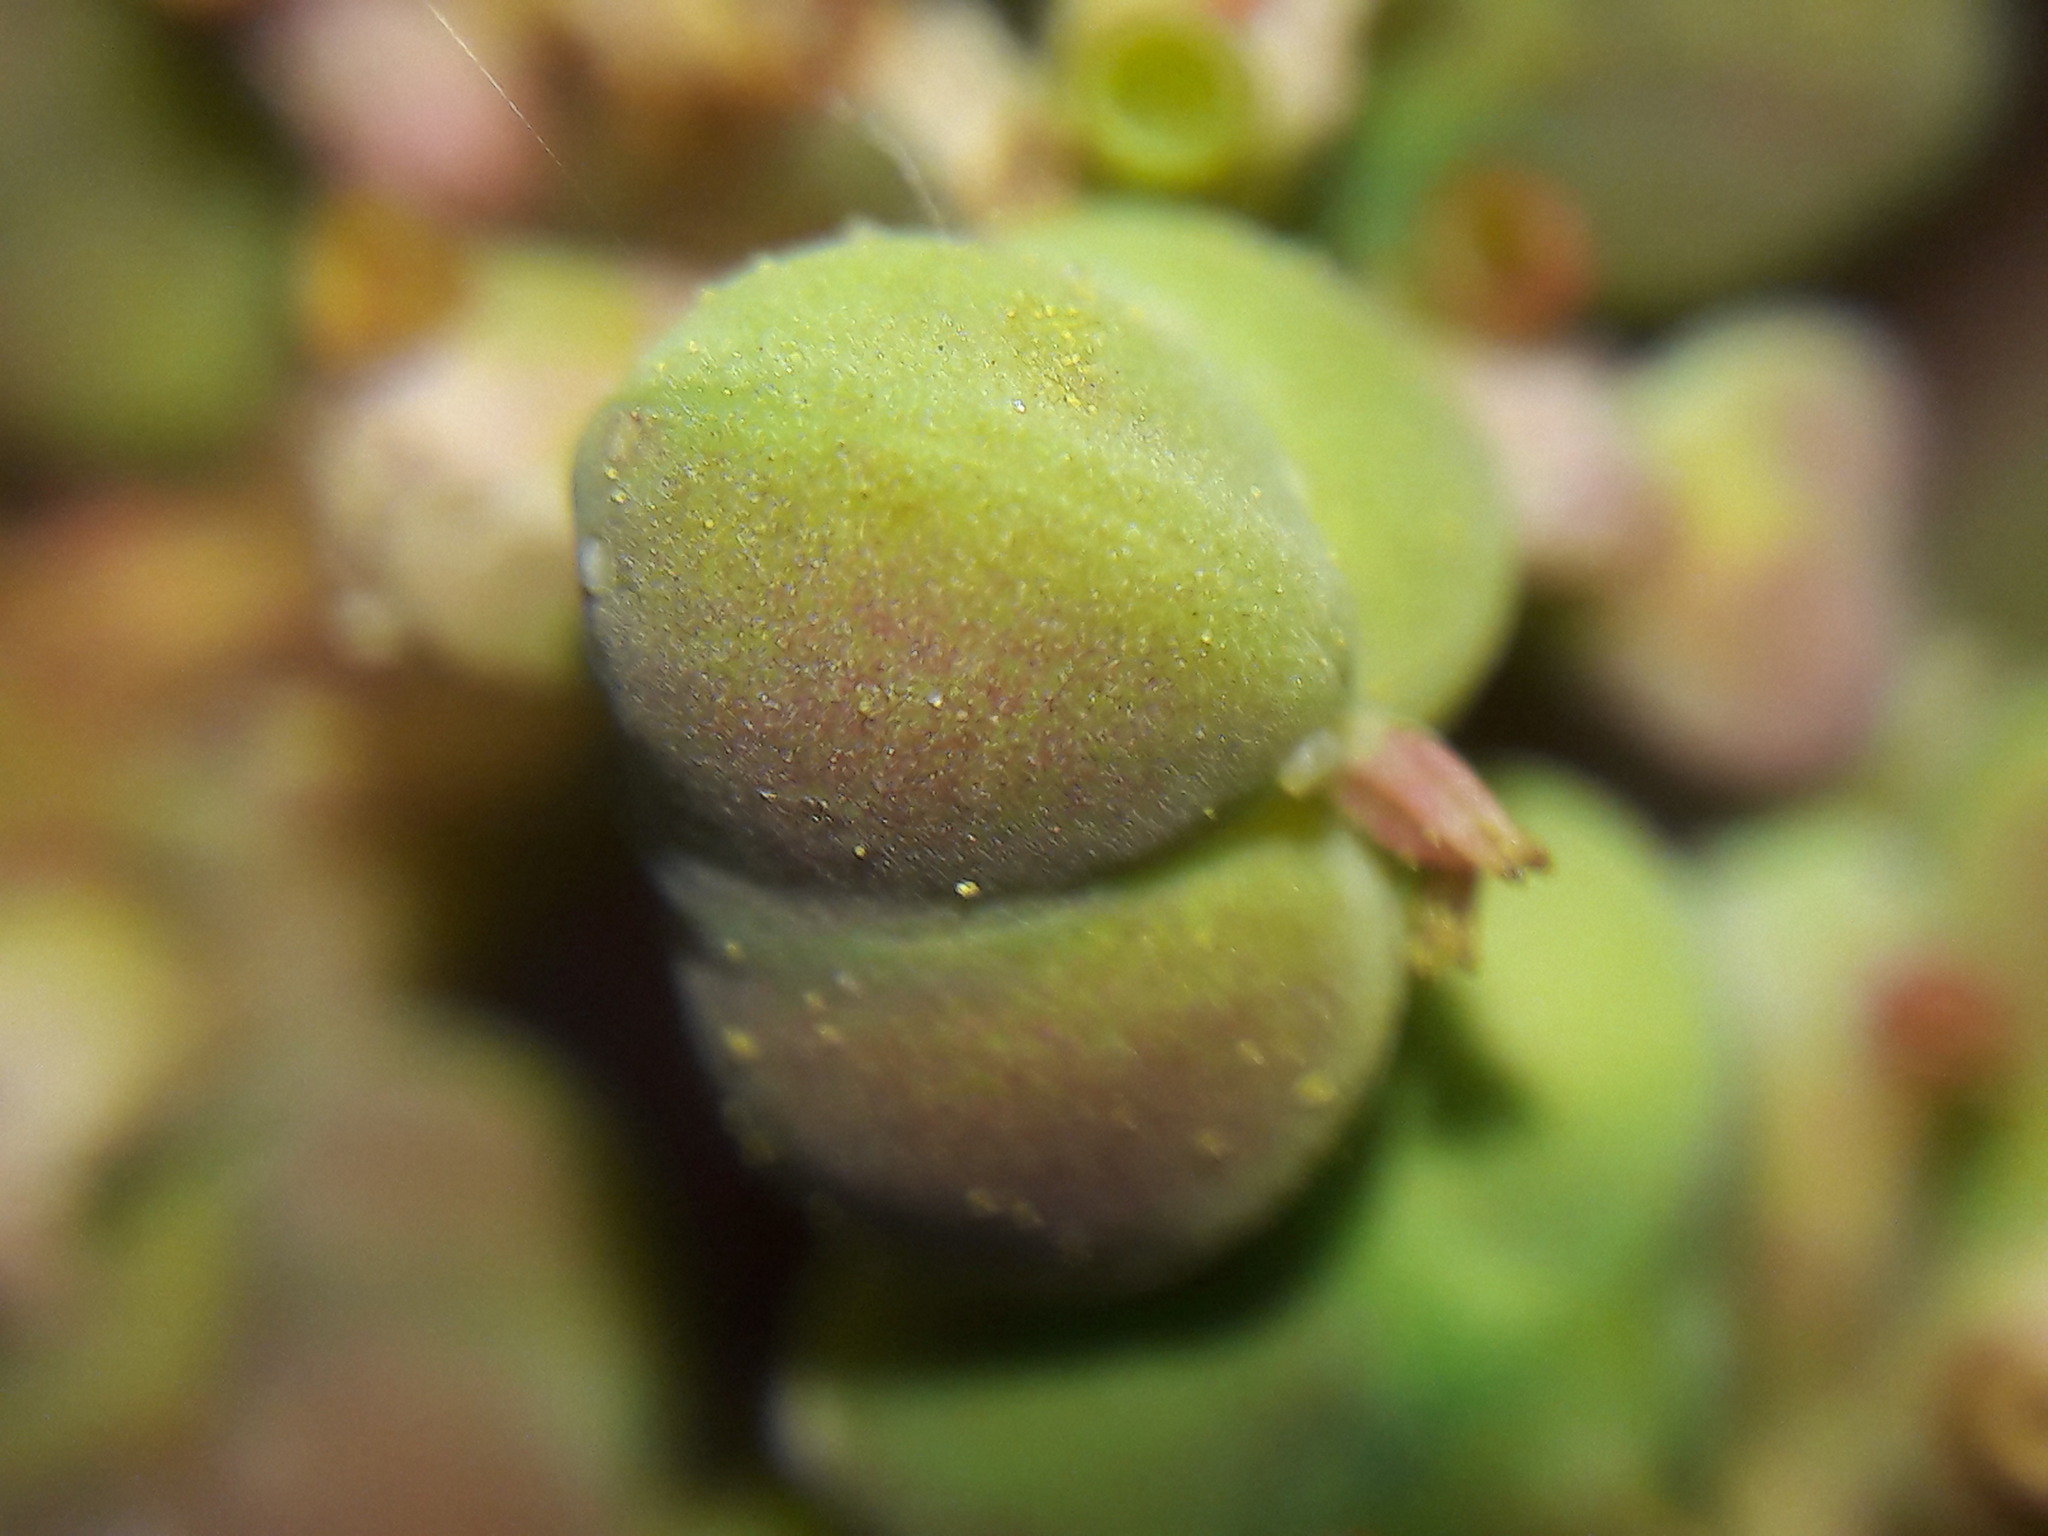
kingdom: Plantae
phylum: Tracheophyta
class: Magnoliopsida
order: Malpighiales
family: Euphorbiaceae
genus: Euphorbia
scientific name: Euphorbia heterophylla
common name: Mexican fireplant
